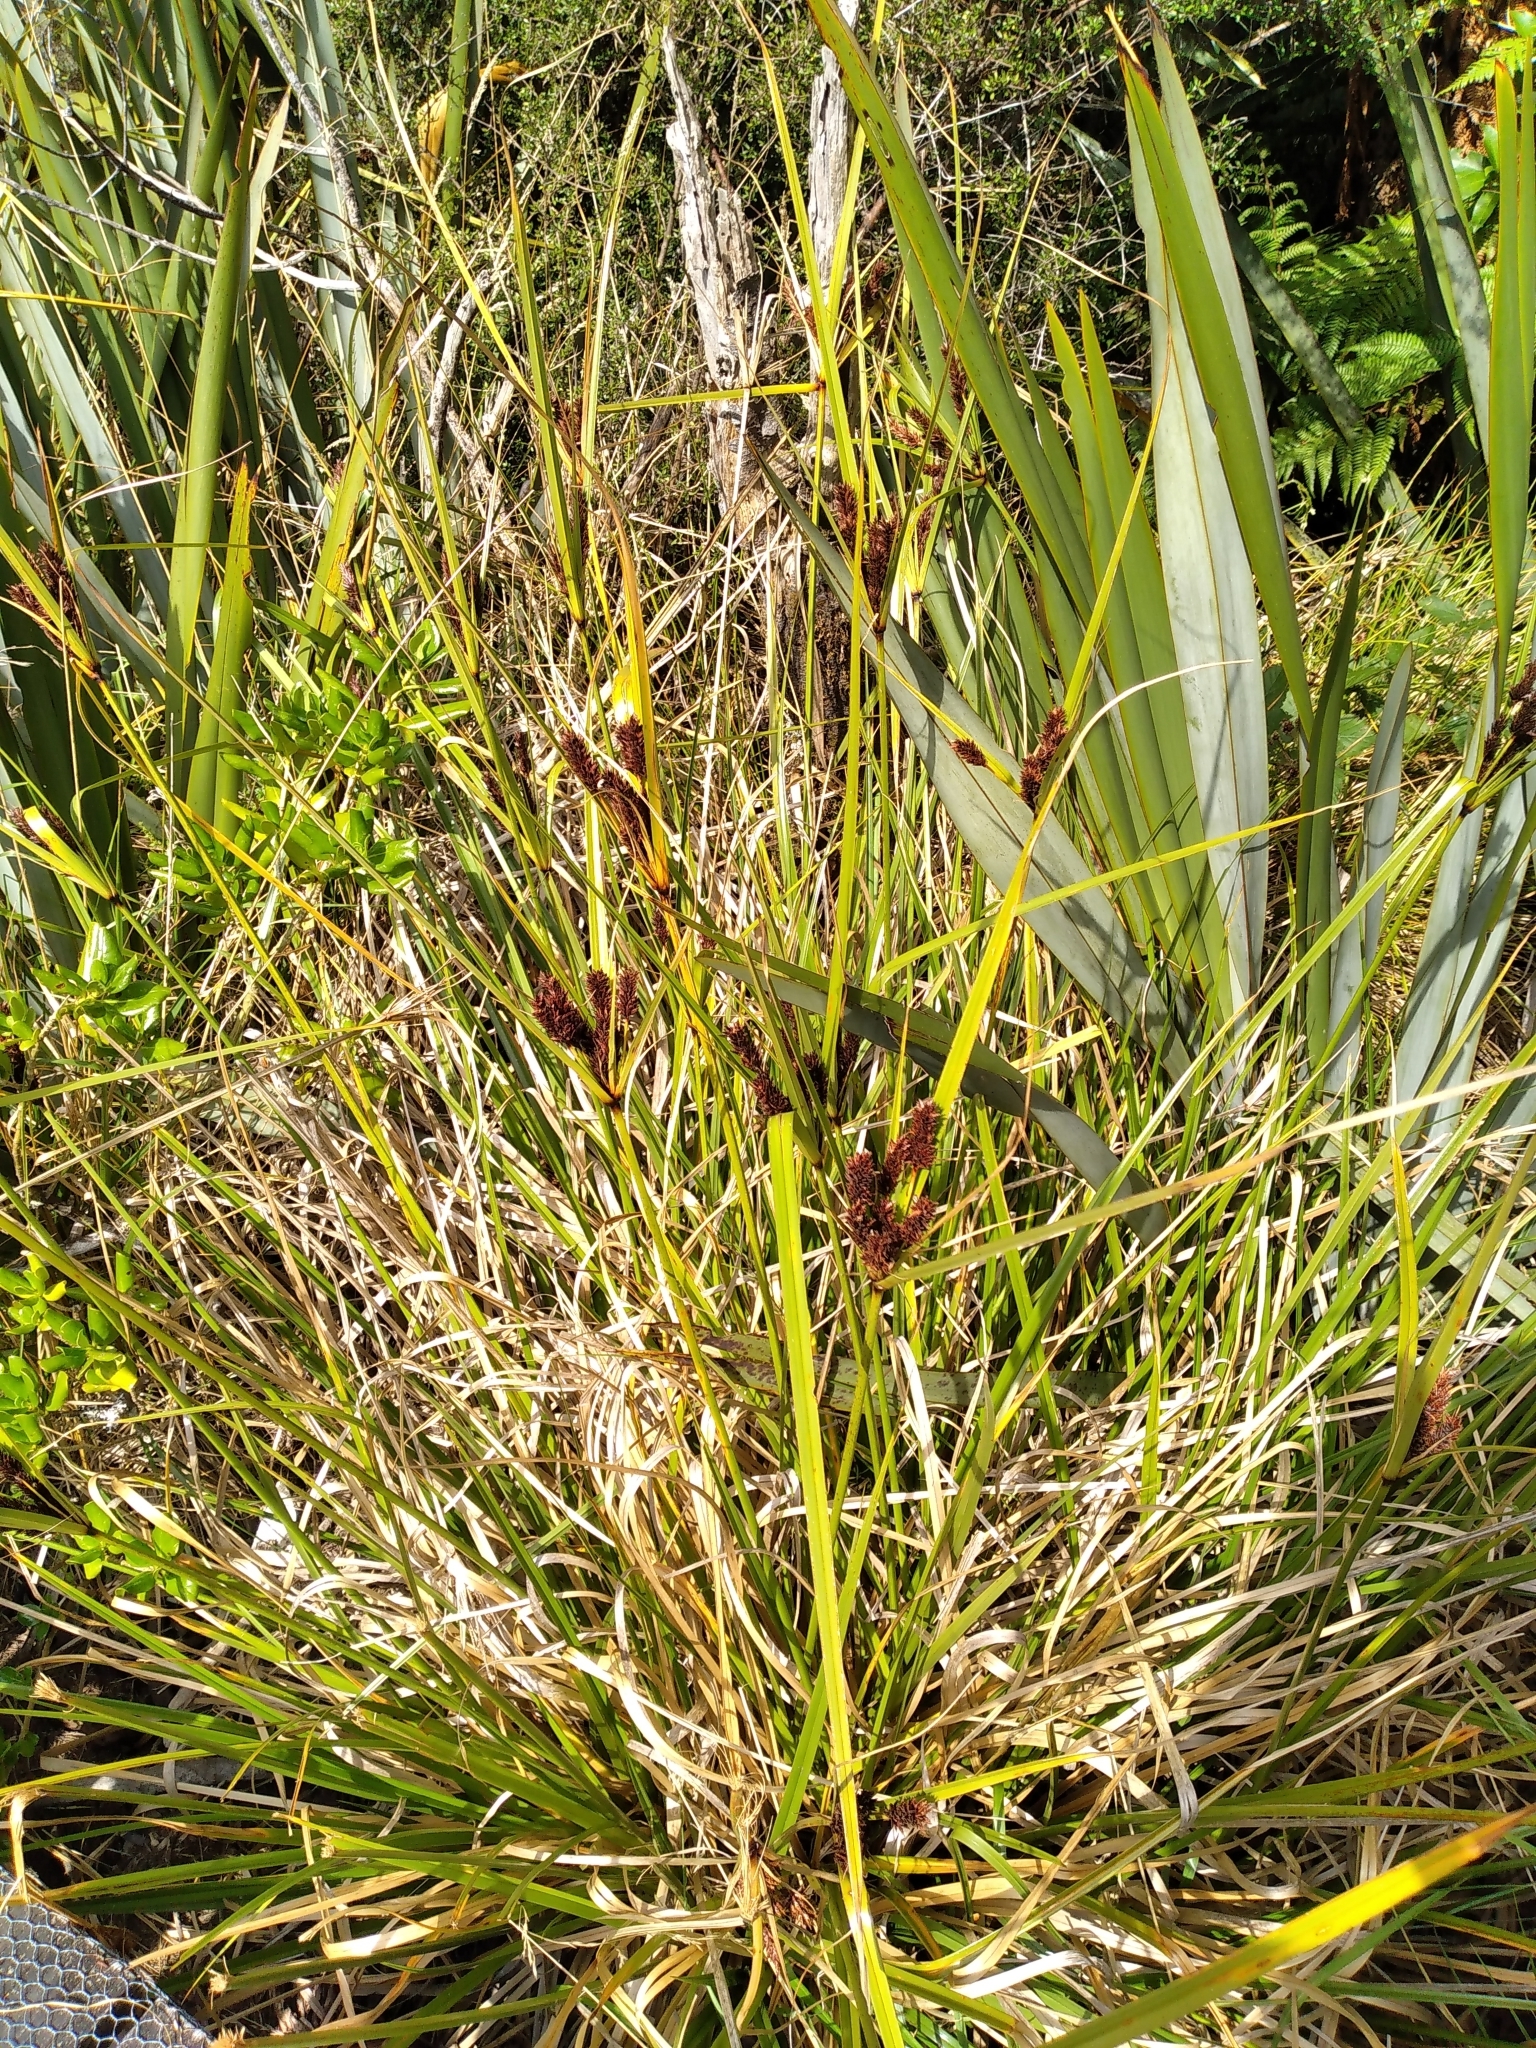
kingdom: Plantae
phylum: Tracheophyta
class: Liliopsida
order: Poales
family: Cyperaceae
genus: Cyperus
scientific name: Cyperus ustulatus
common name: Giant umbrella-sedge
